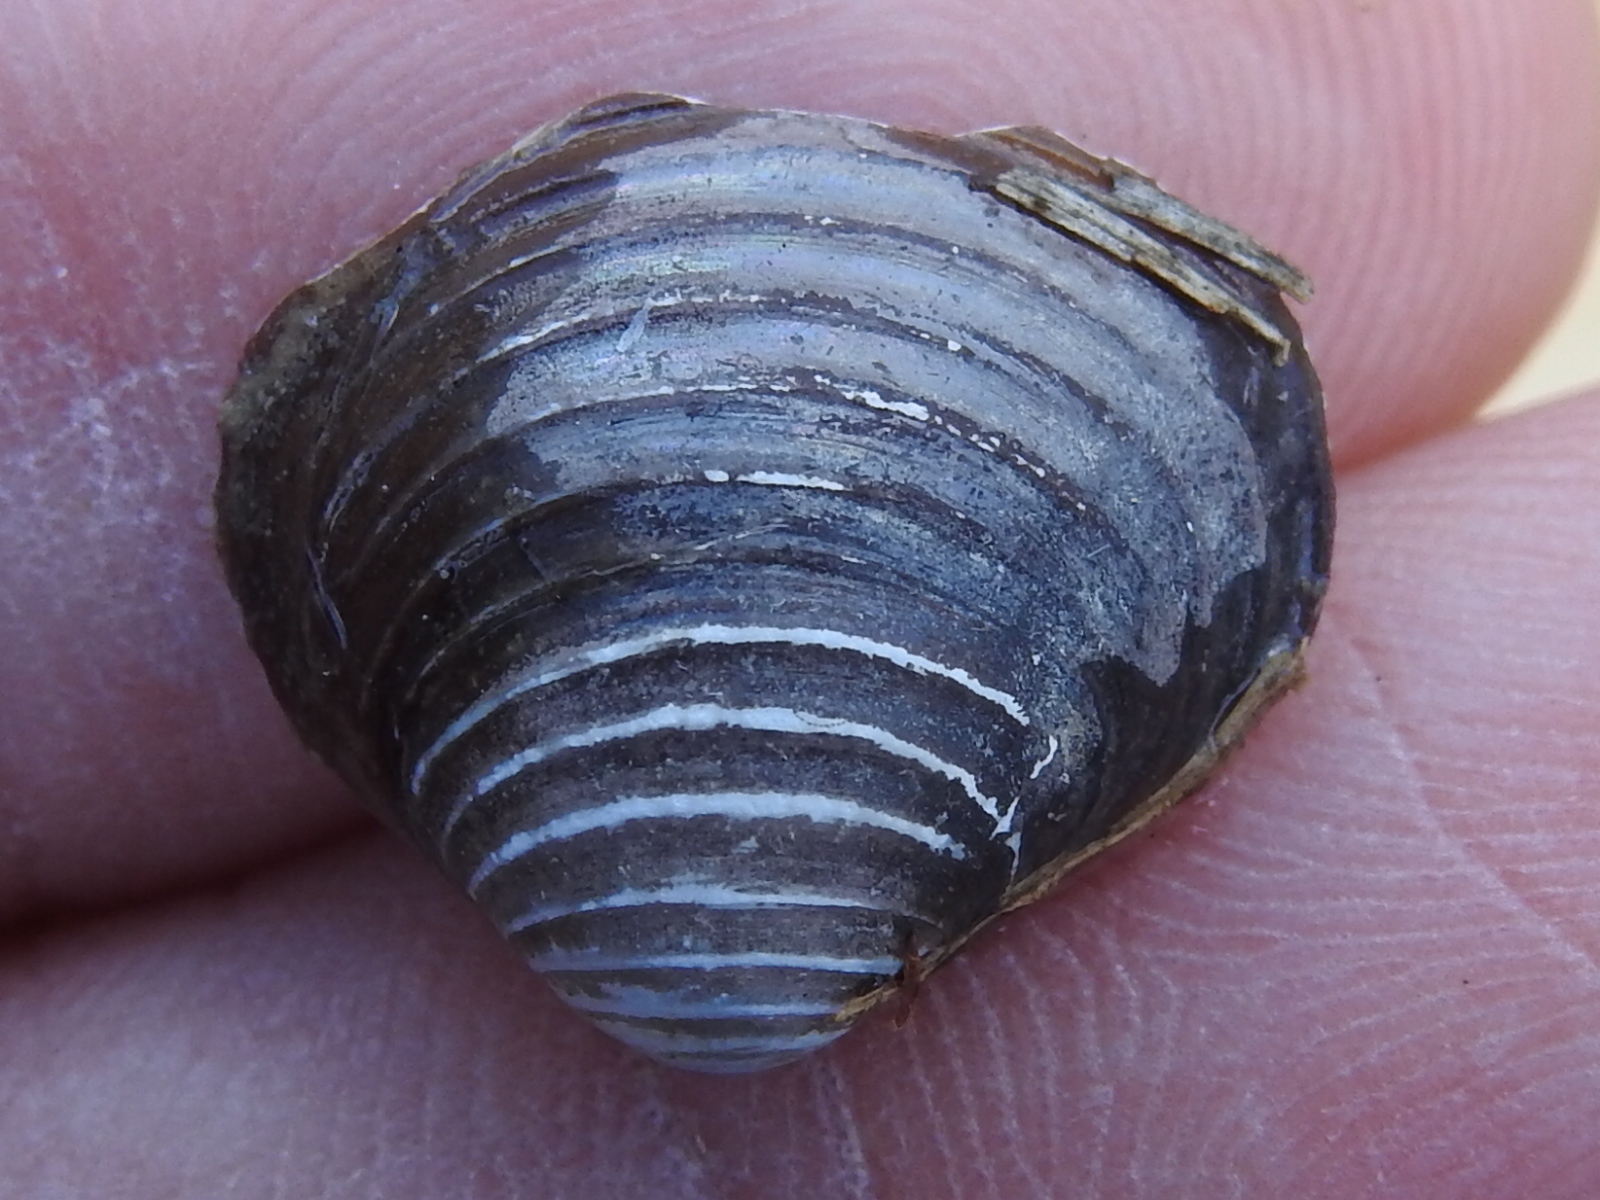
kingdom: Animalia
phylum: Mollusca
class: Bivalvia
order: Venerida
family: Cyrenidae
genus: Corbicula
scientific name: Corbicula fluminea
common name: Asian clam
